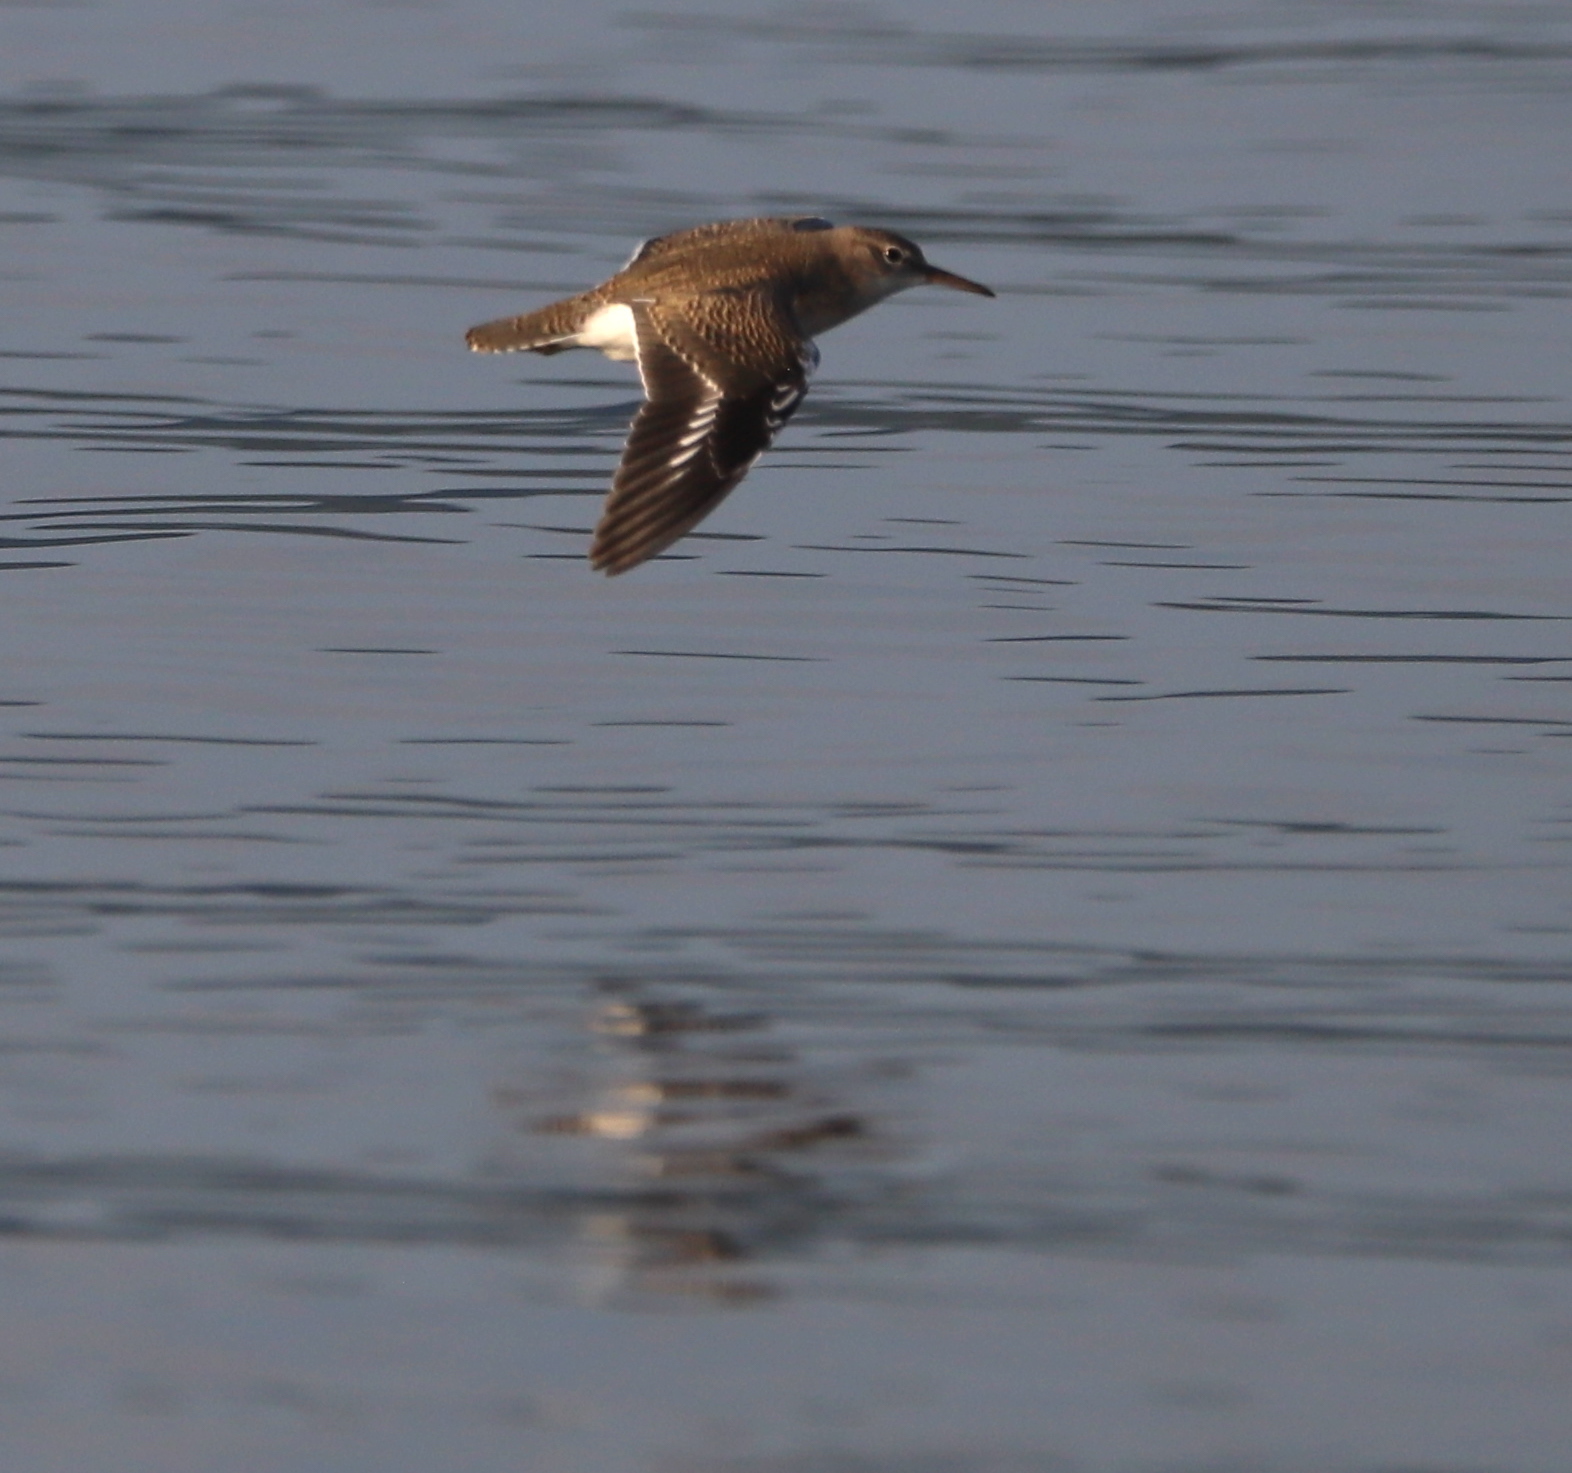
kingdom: Animalia
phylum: Chordata
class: Aves
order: Charadriiformes
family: Scolopacidae
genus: Actitis
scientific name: Actitis macularius
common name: Spotted sandpiper
